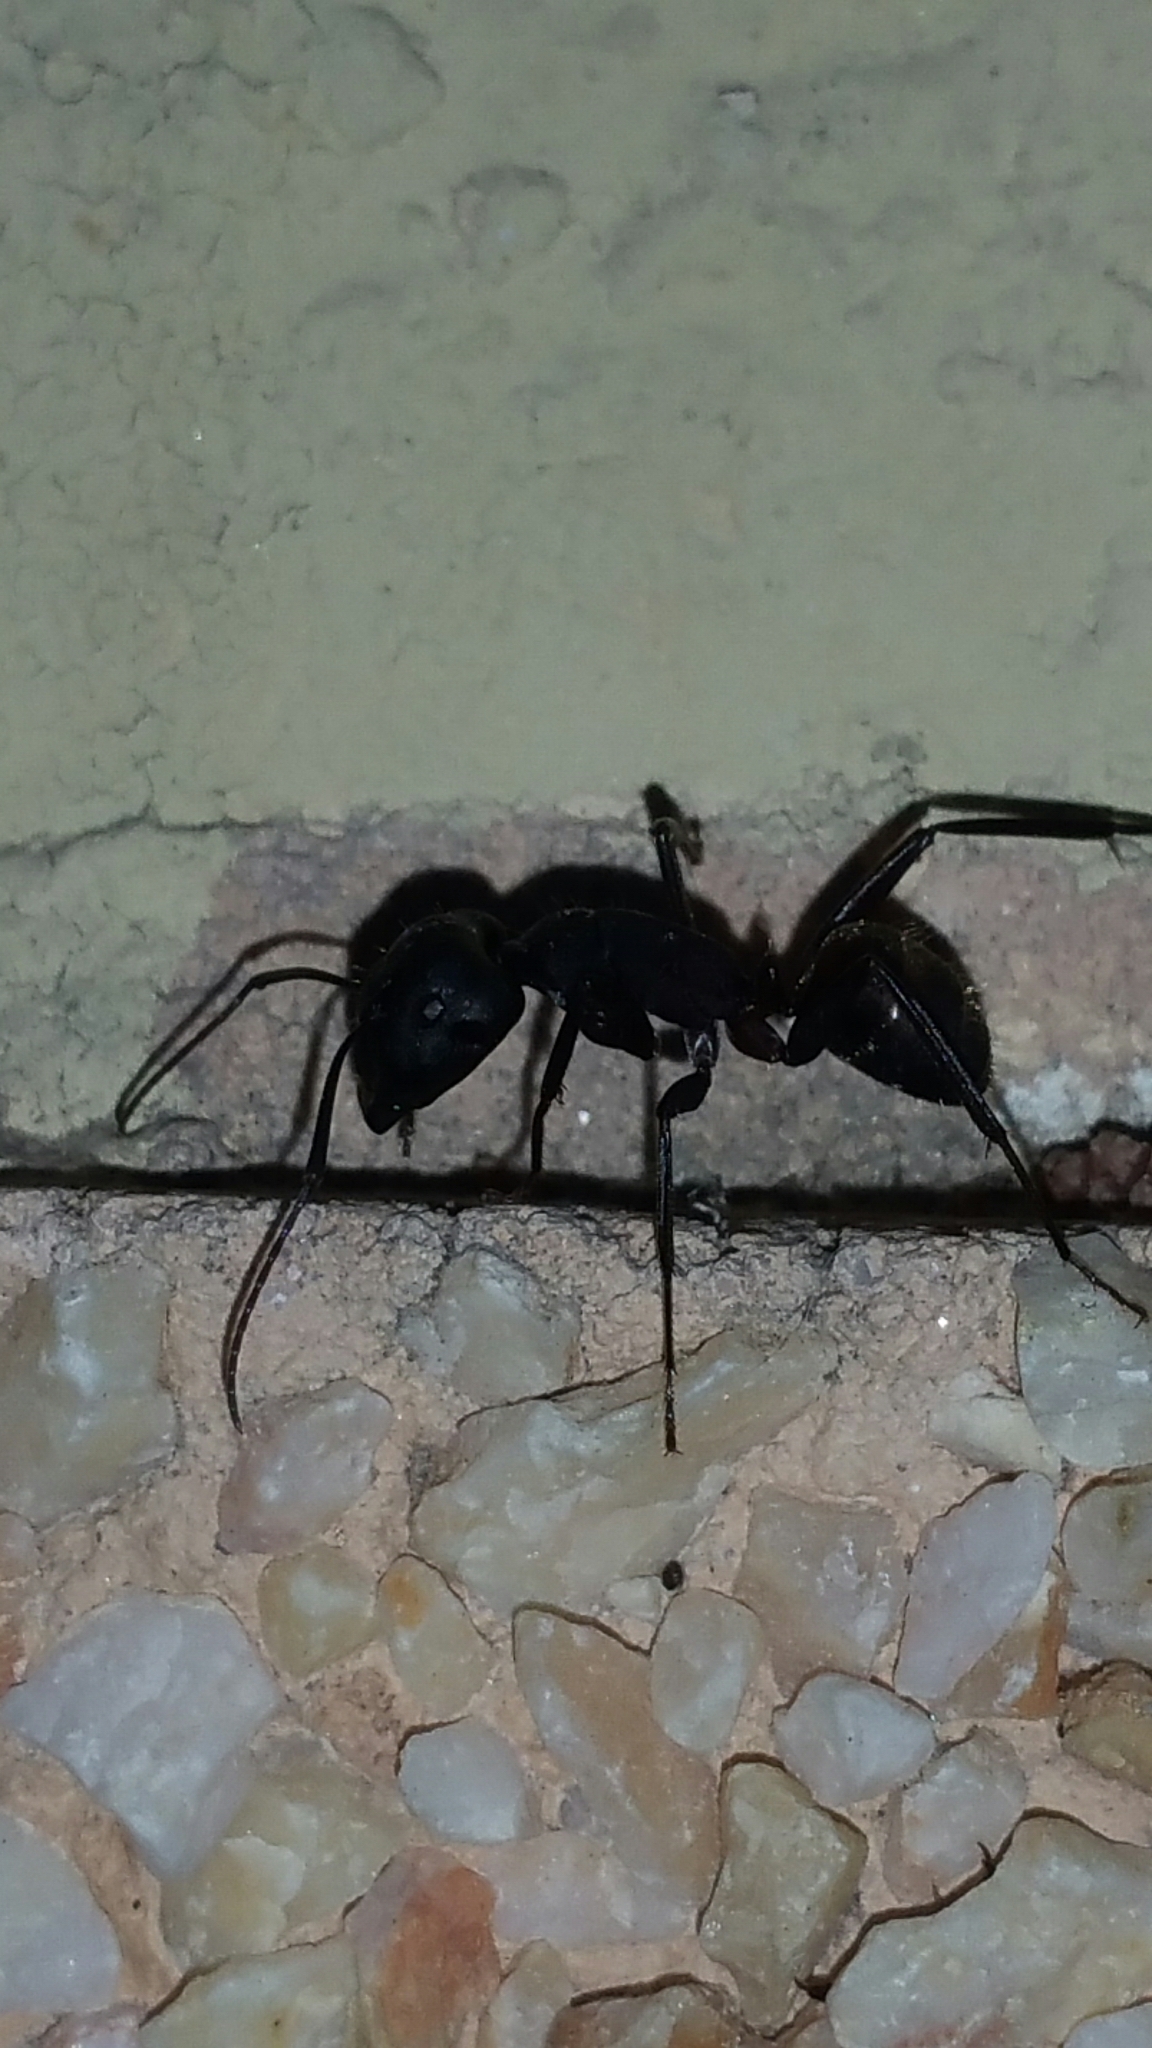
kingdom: Animalia
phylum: Arthropoda
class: Insecta
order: Hymenoptera
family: Formicidae
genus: Camponotus
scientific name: Camponotus cruentatus
